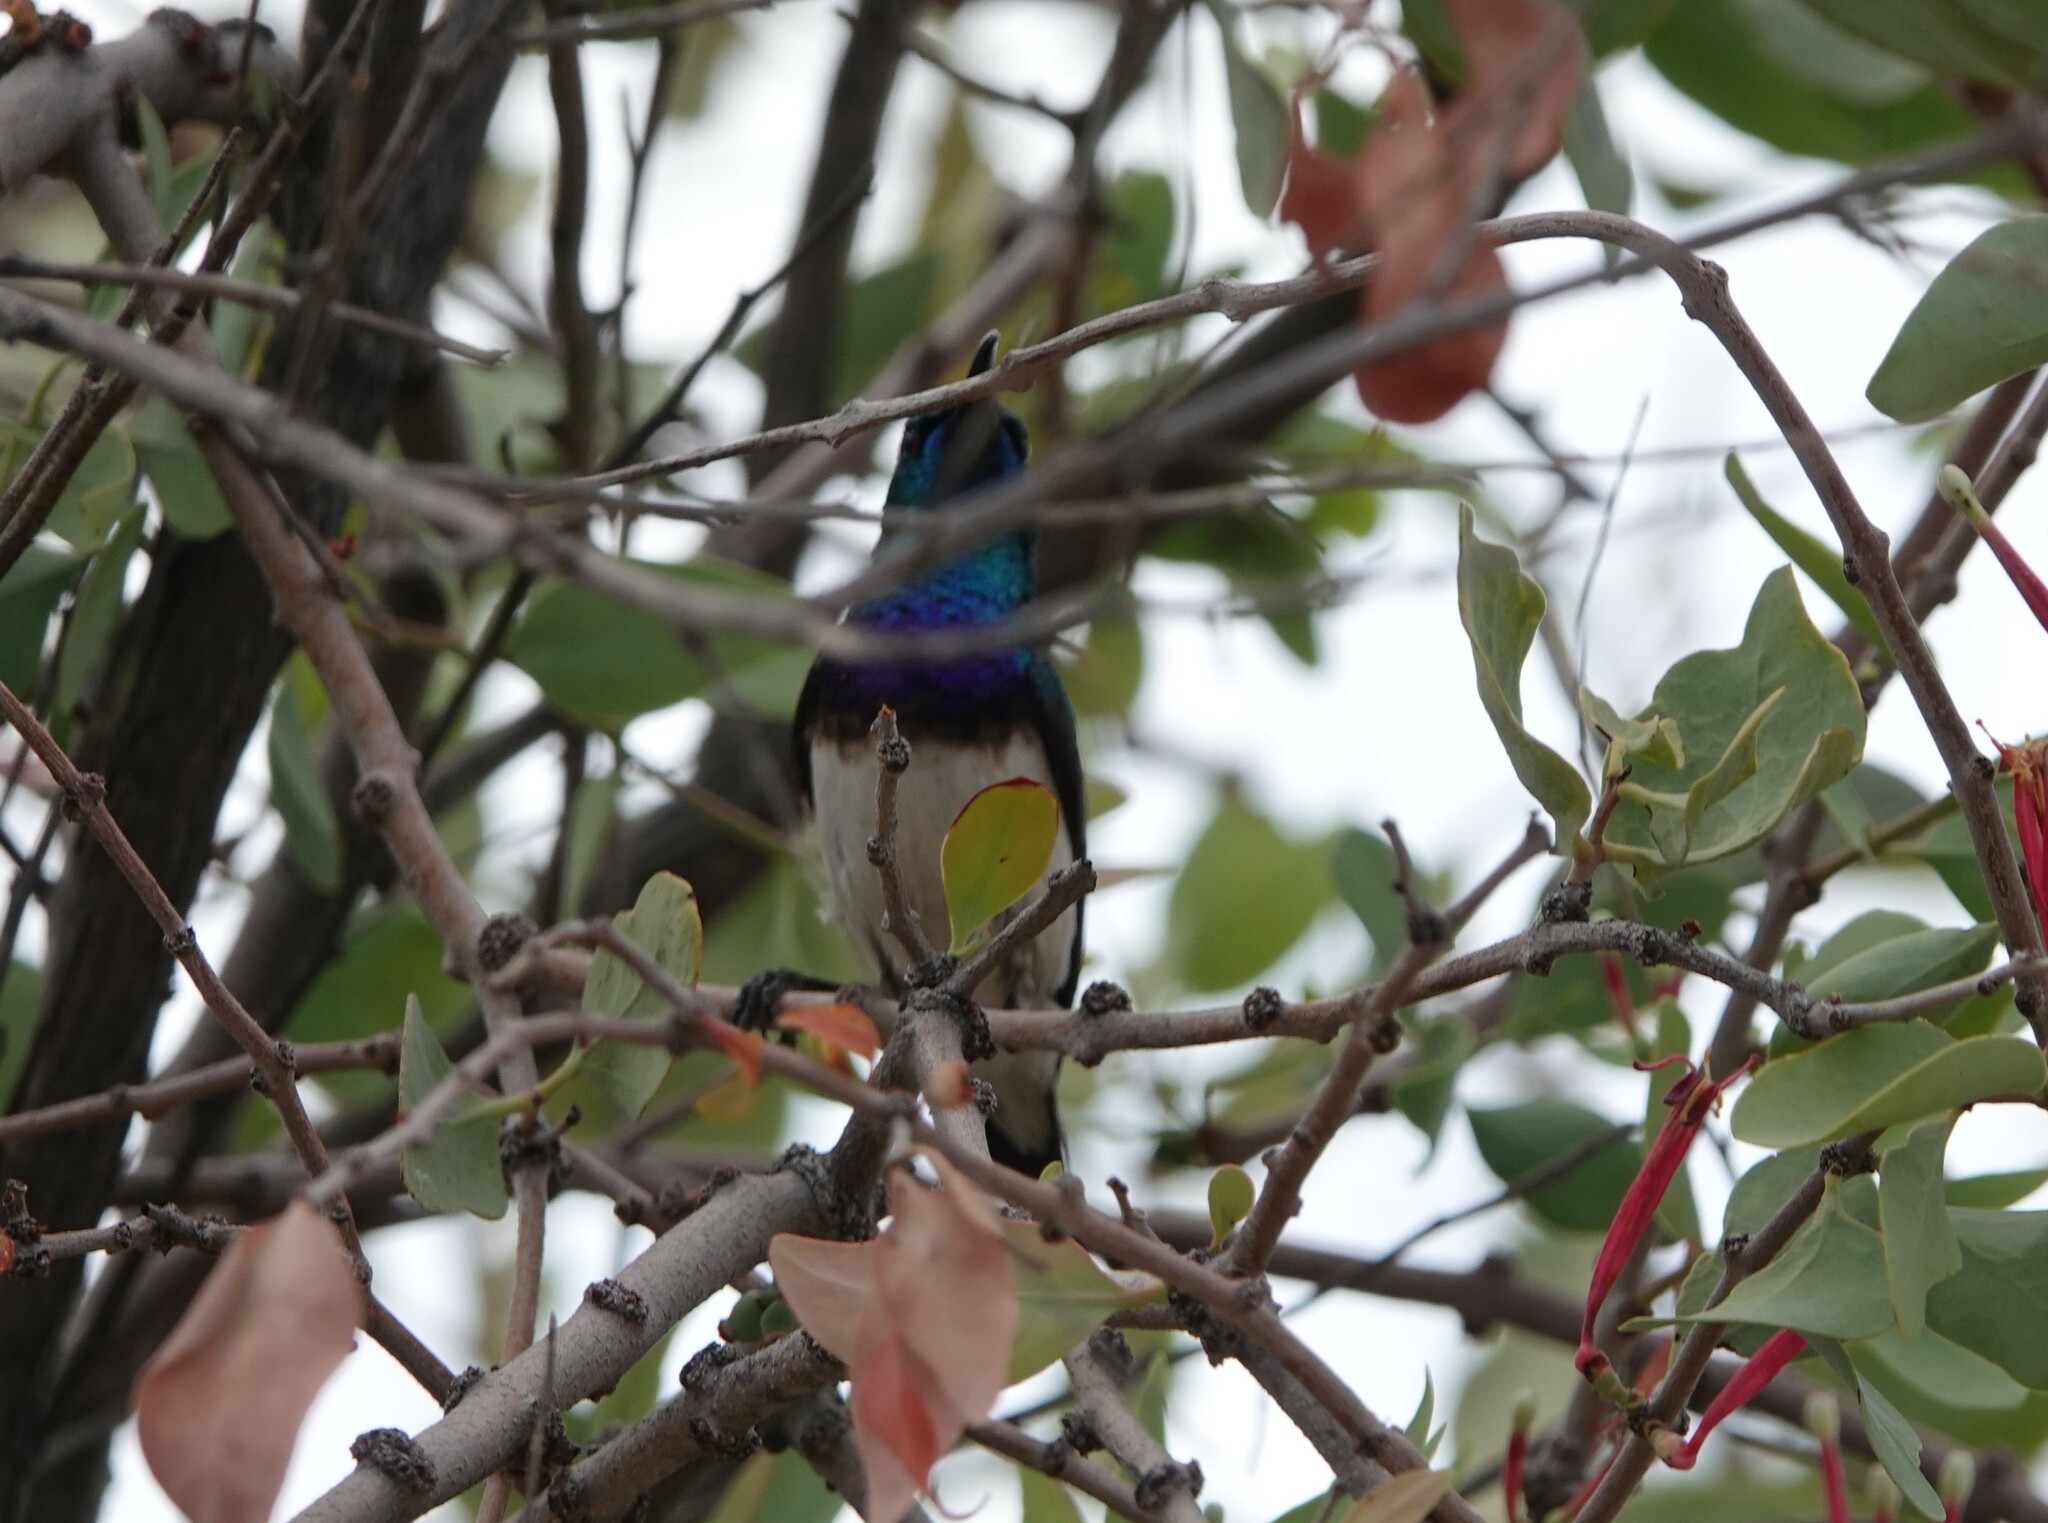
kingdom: Animalia
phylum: Chordata
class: Aves
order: Passeriformes
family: Nectariniidae
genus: Cinnyris
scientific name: Cinnyris talatala
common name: White-bellied sunbird
